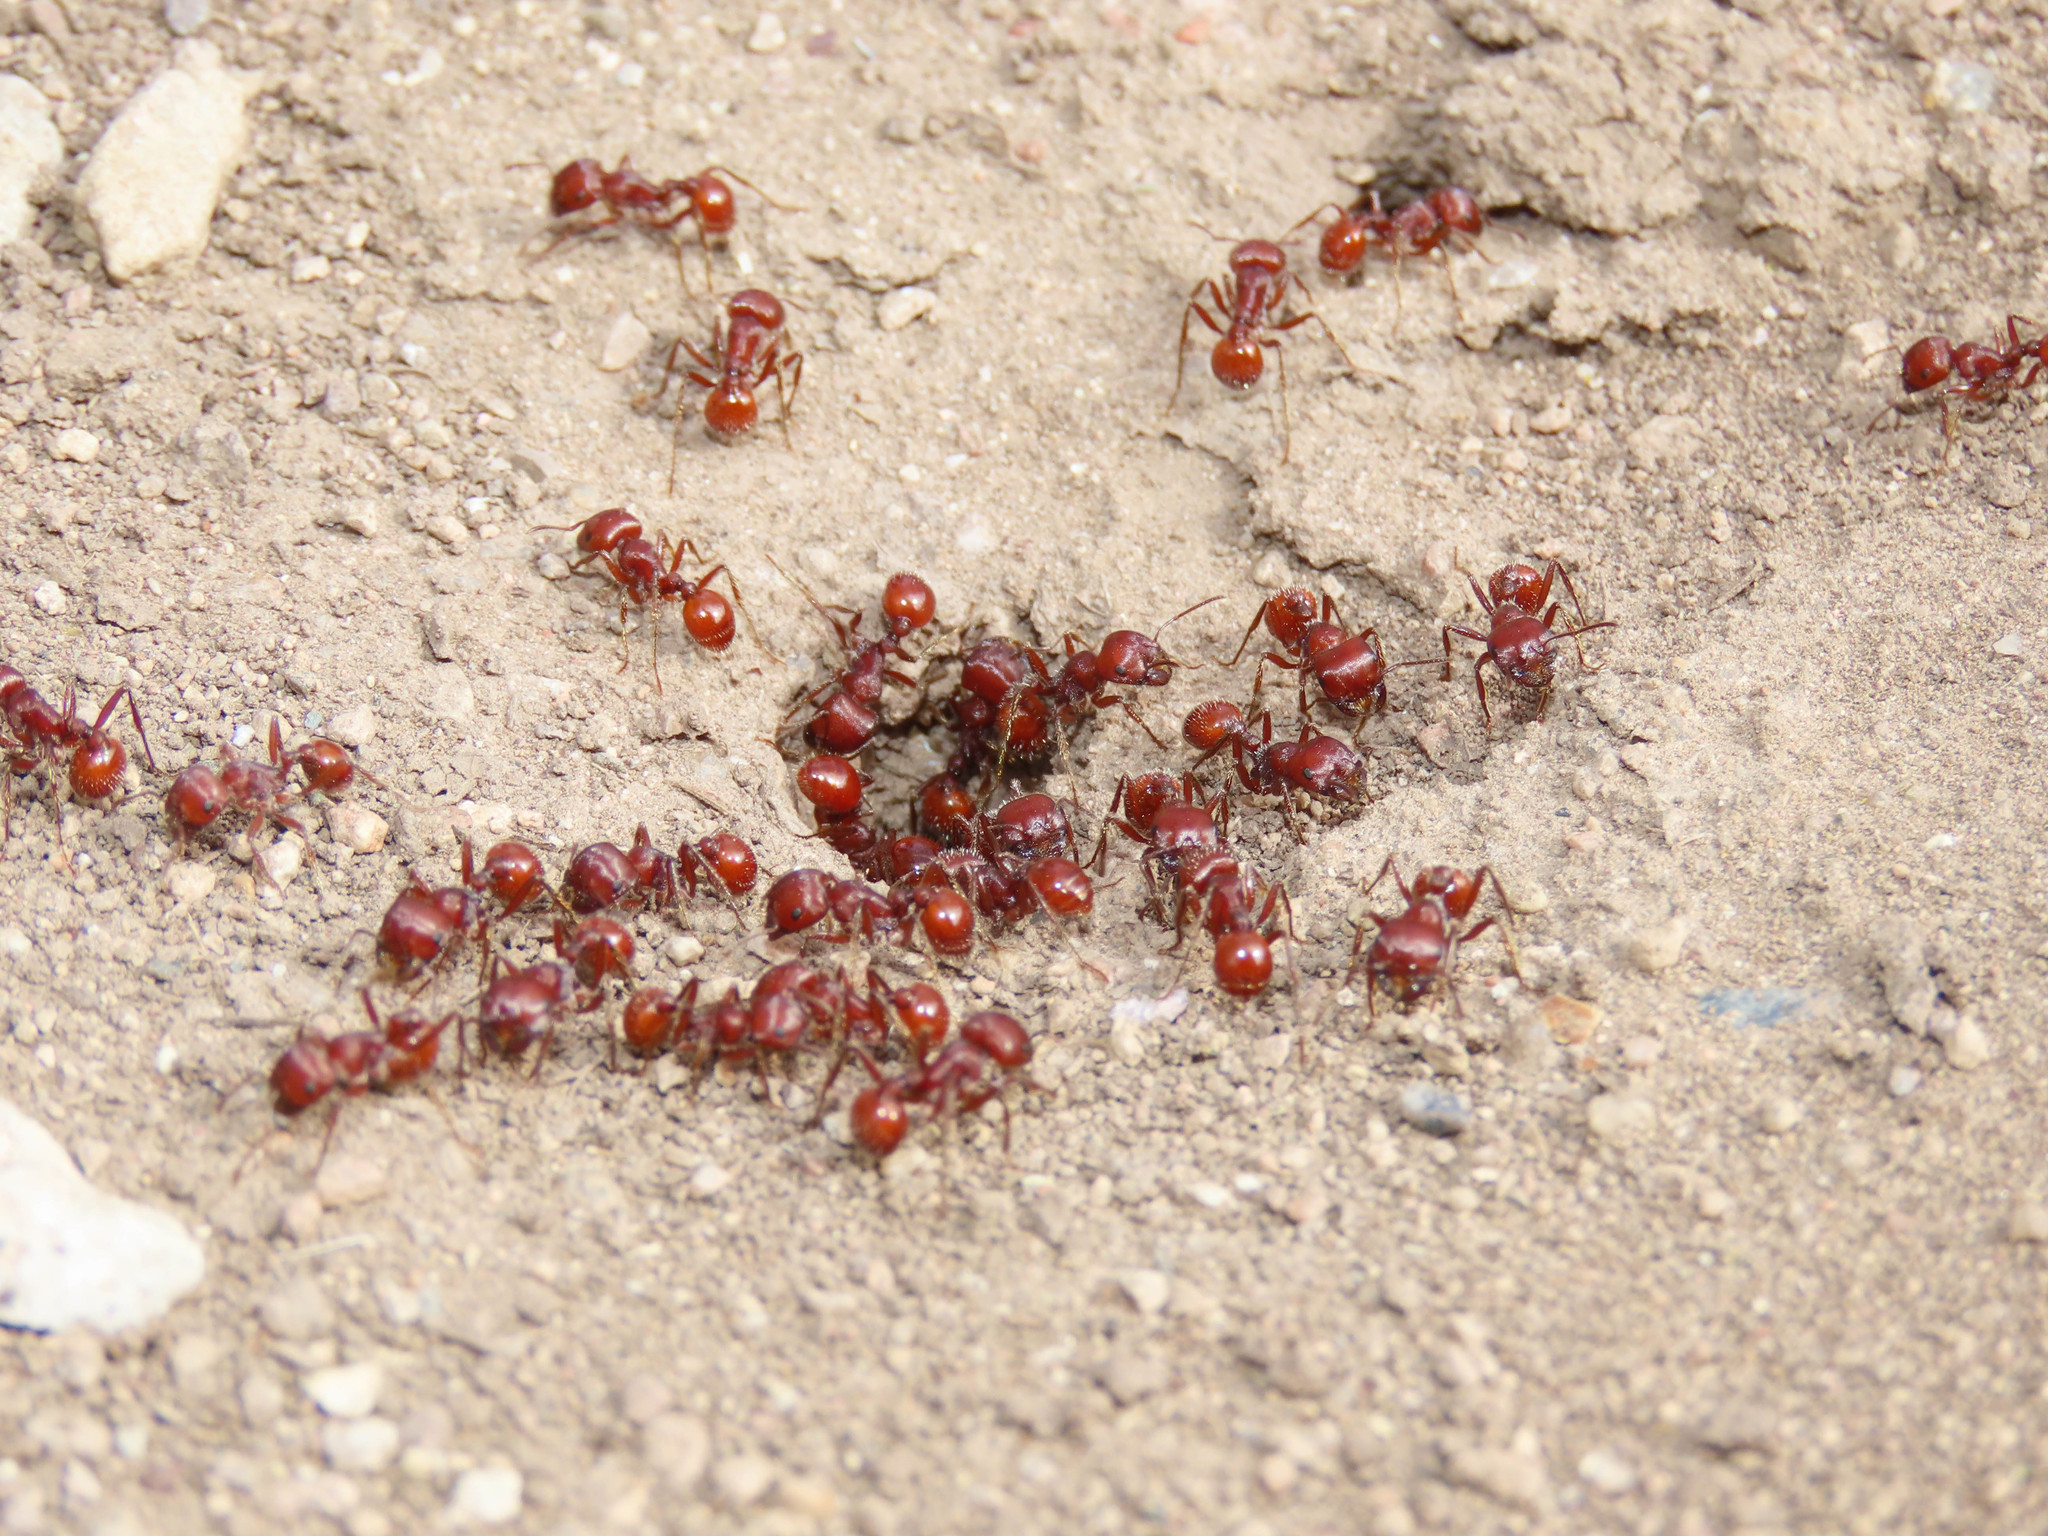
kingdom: Animalia
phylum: Arthropoda
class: Insecta
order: Hymenoptera
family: Formicidae
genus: Pogonomyrmex
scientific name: Pogonomyrmex barbatus
